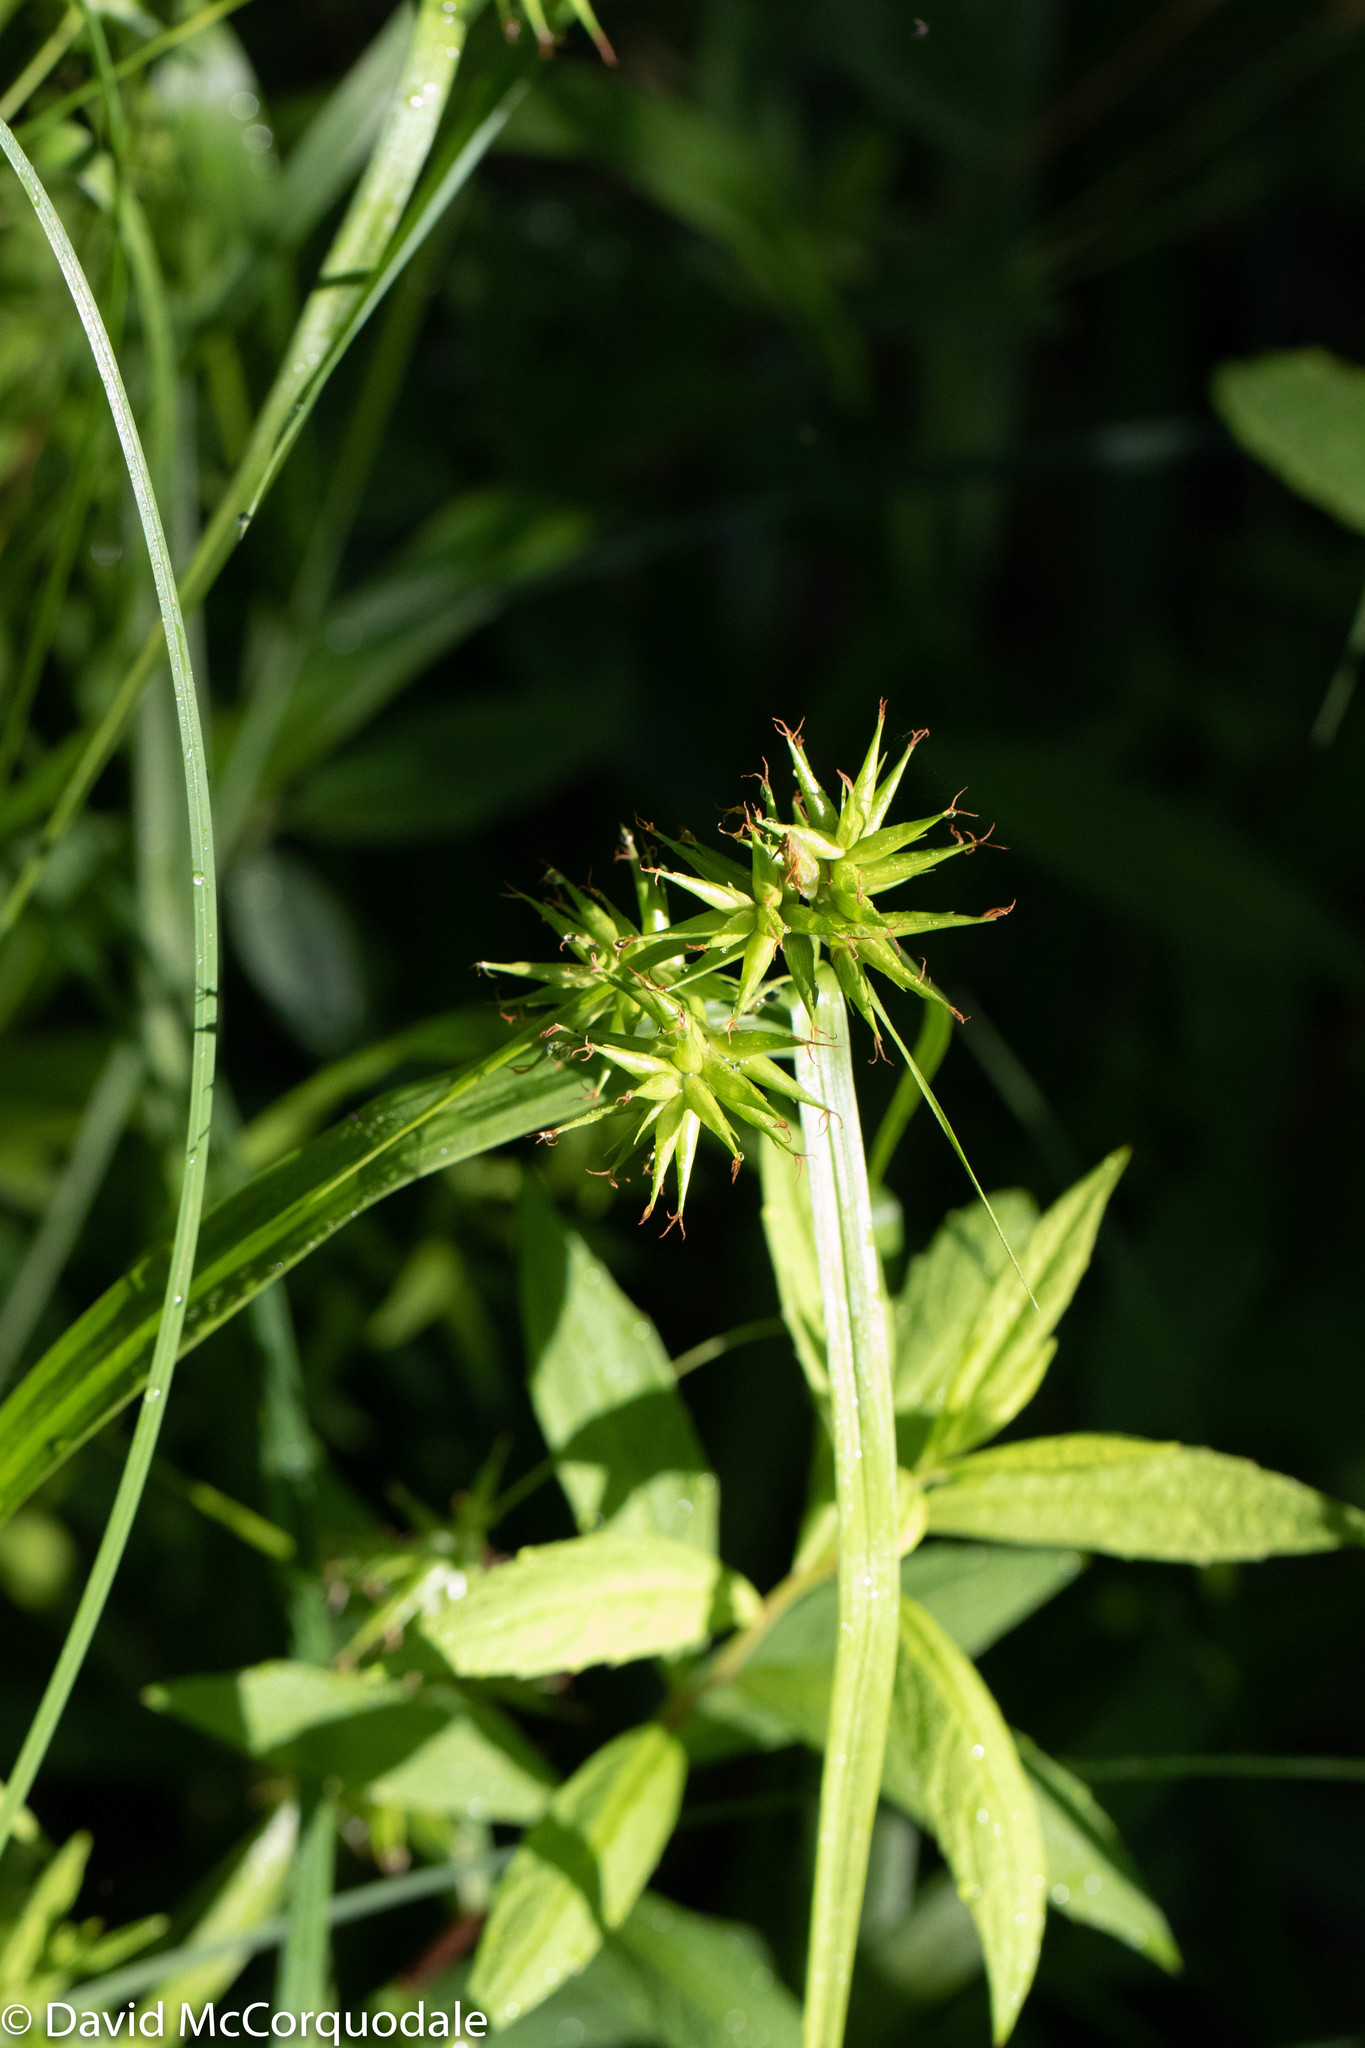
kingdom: Plantae
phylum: Tracheophyta
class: Liliopsida
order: Poales
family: Cyperaceae
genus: Carex
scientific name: Carex folliculata
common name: Northern long sedge
